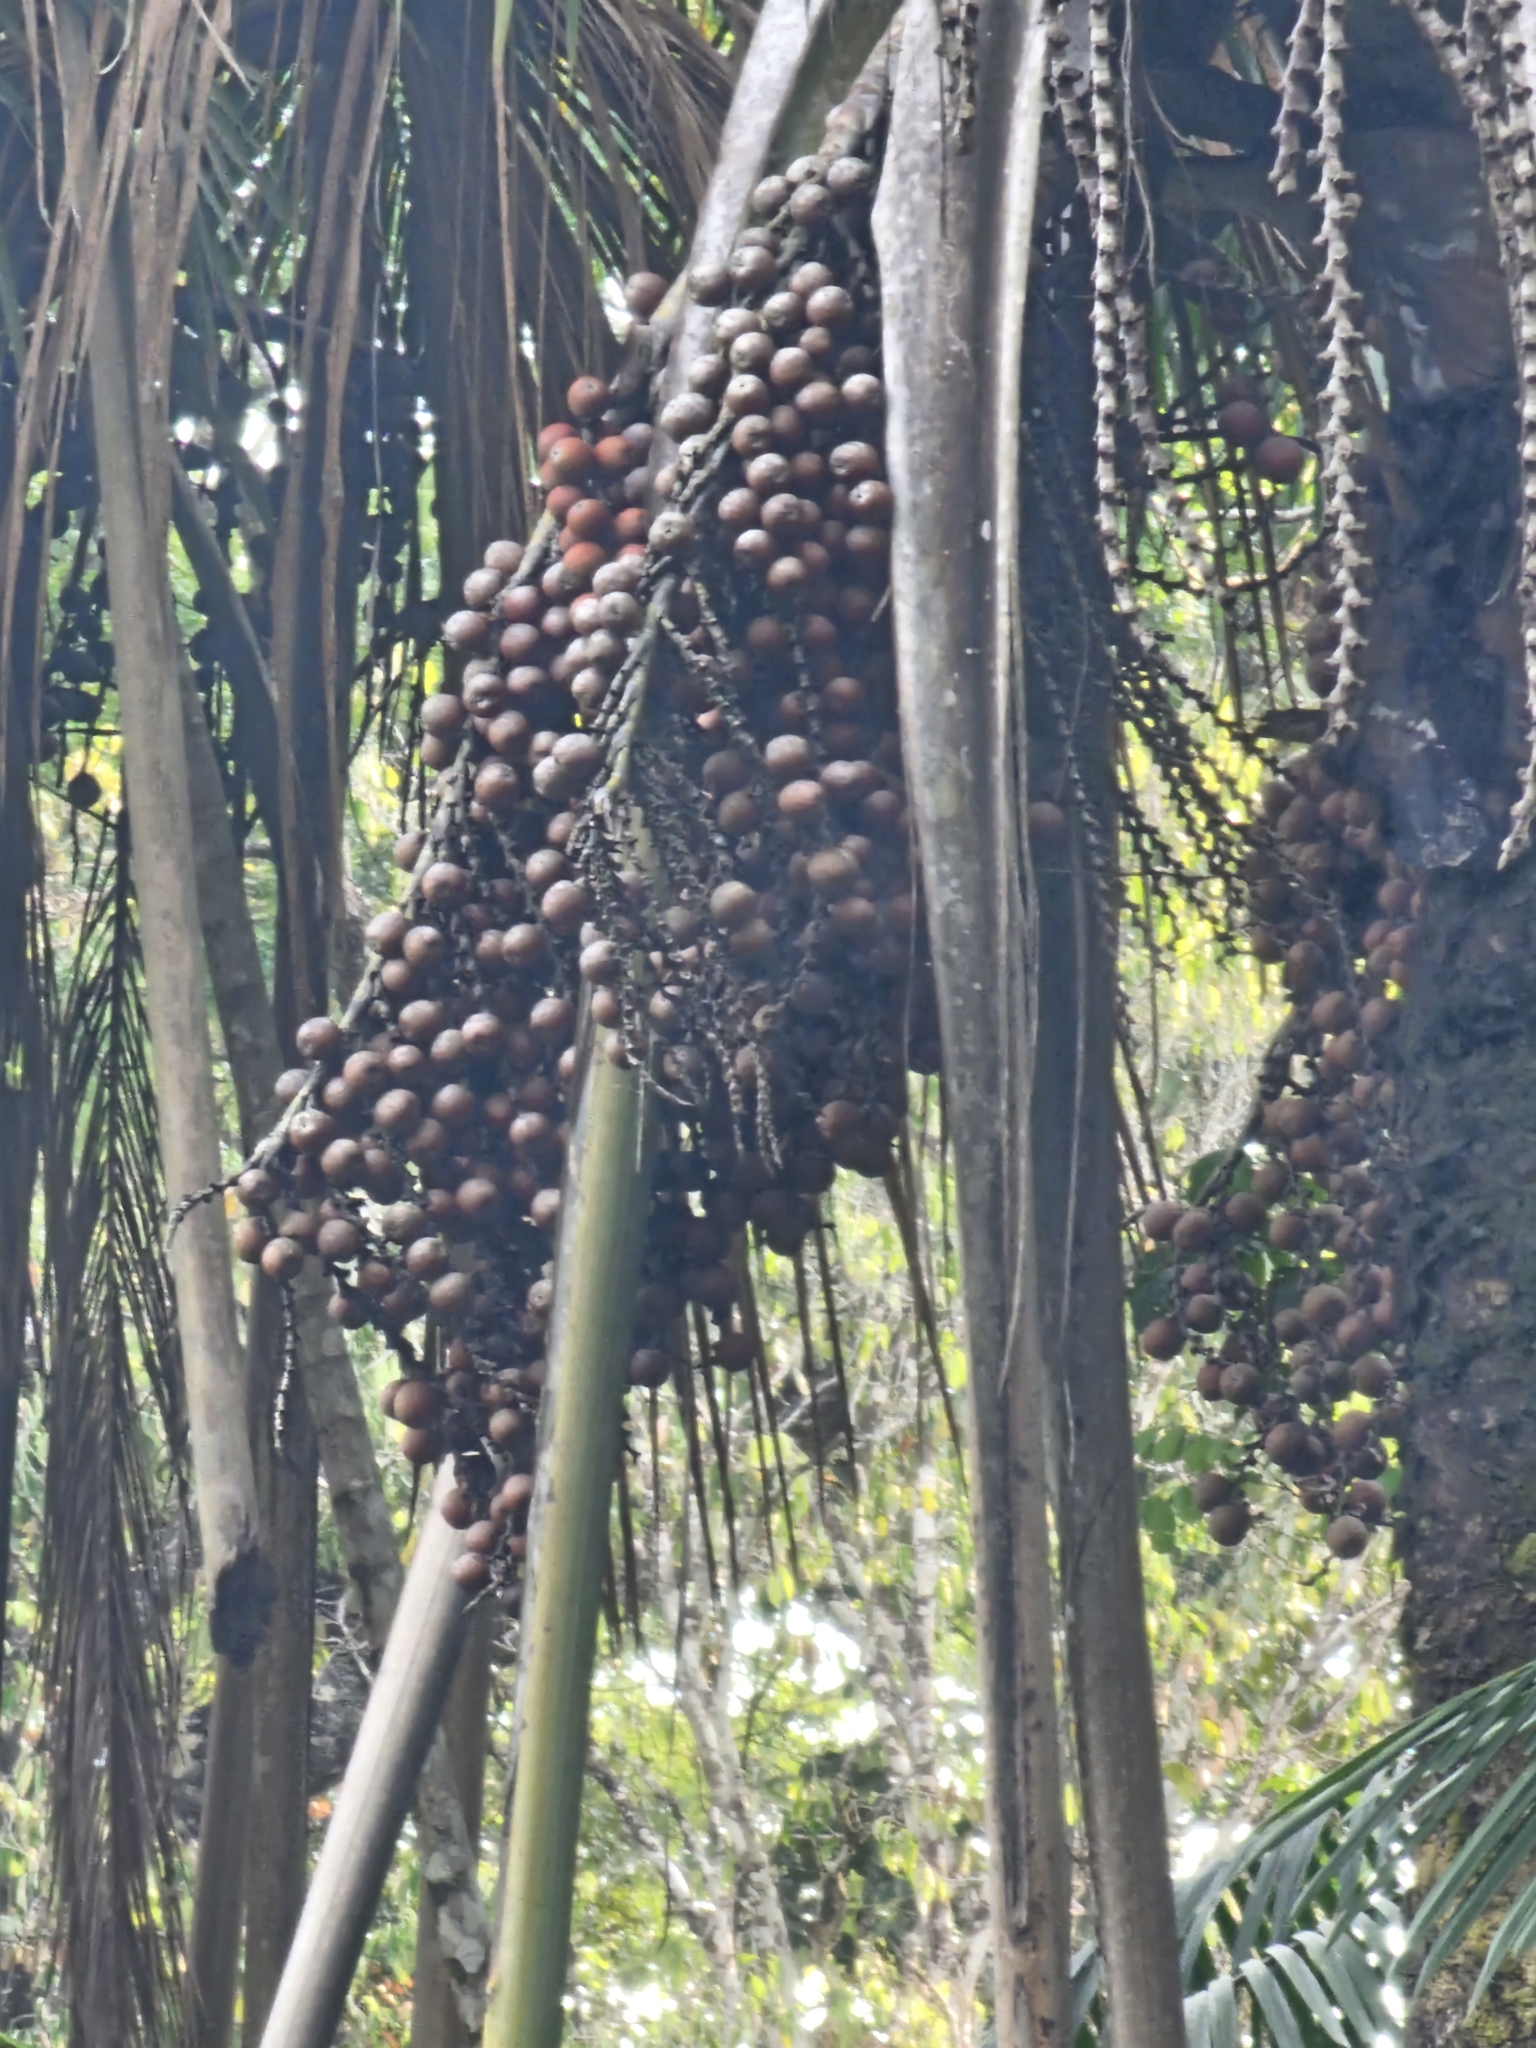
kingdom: Plantae
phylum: Tracheophyta
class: Liliopsida
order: Arecales
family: Arecaceae
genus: Mauritia
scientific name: Mauritia flexuosa
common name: Tree-of-life
